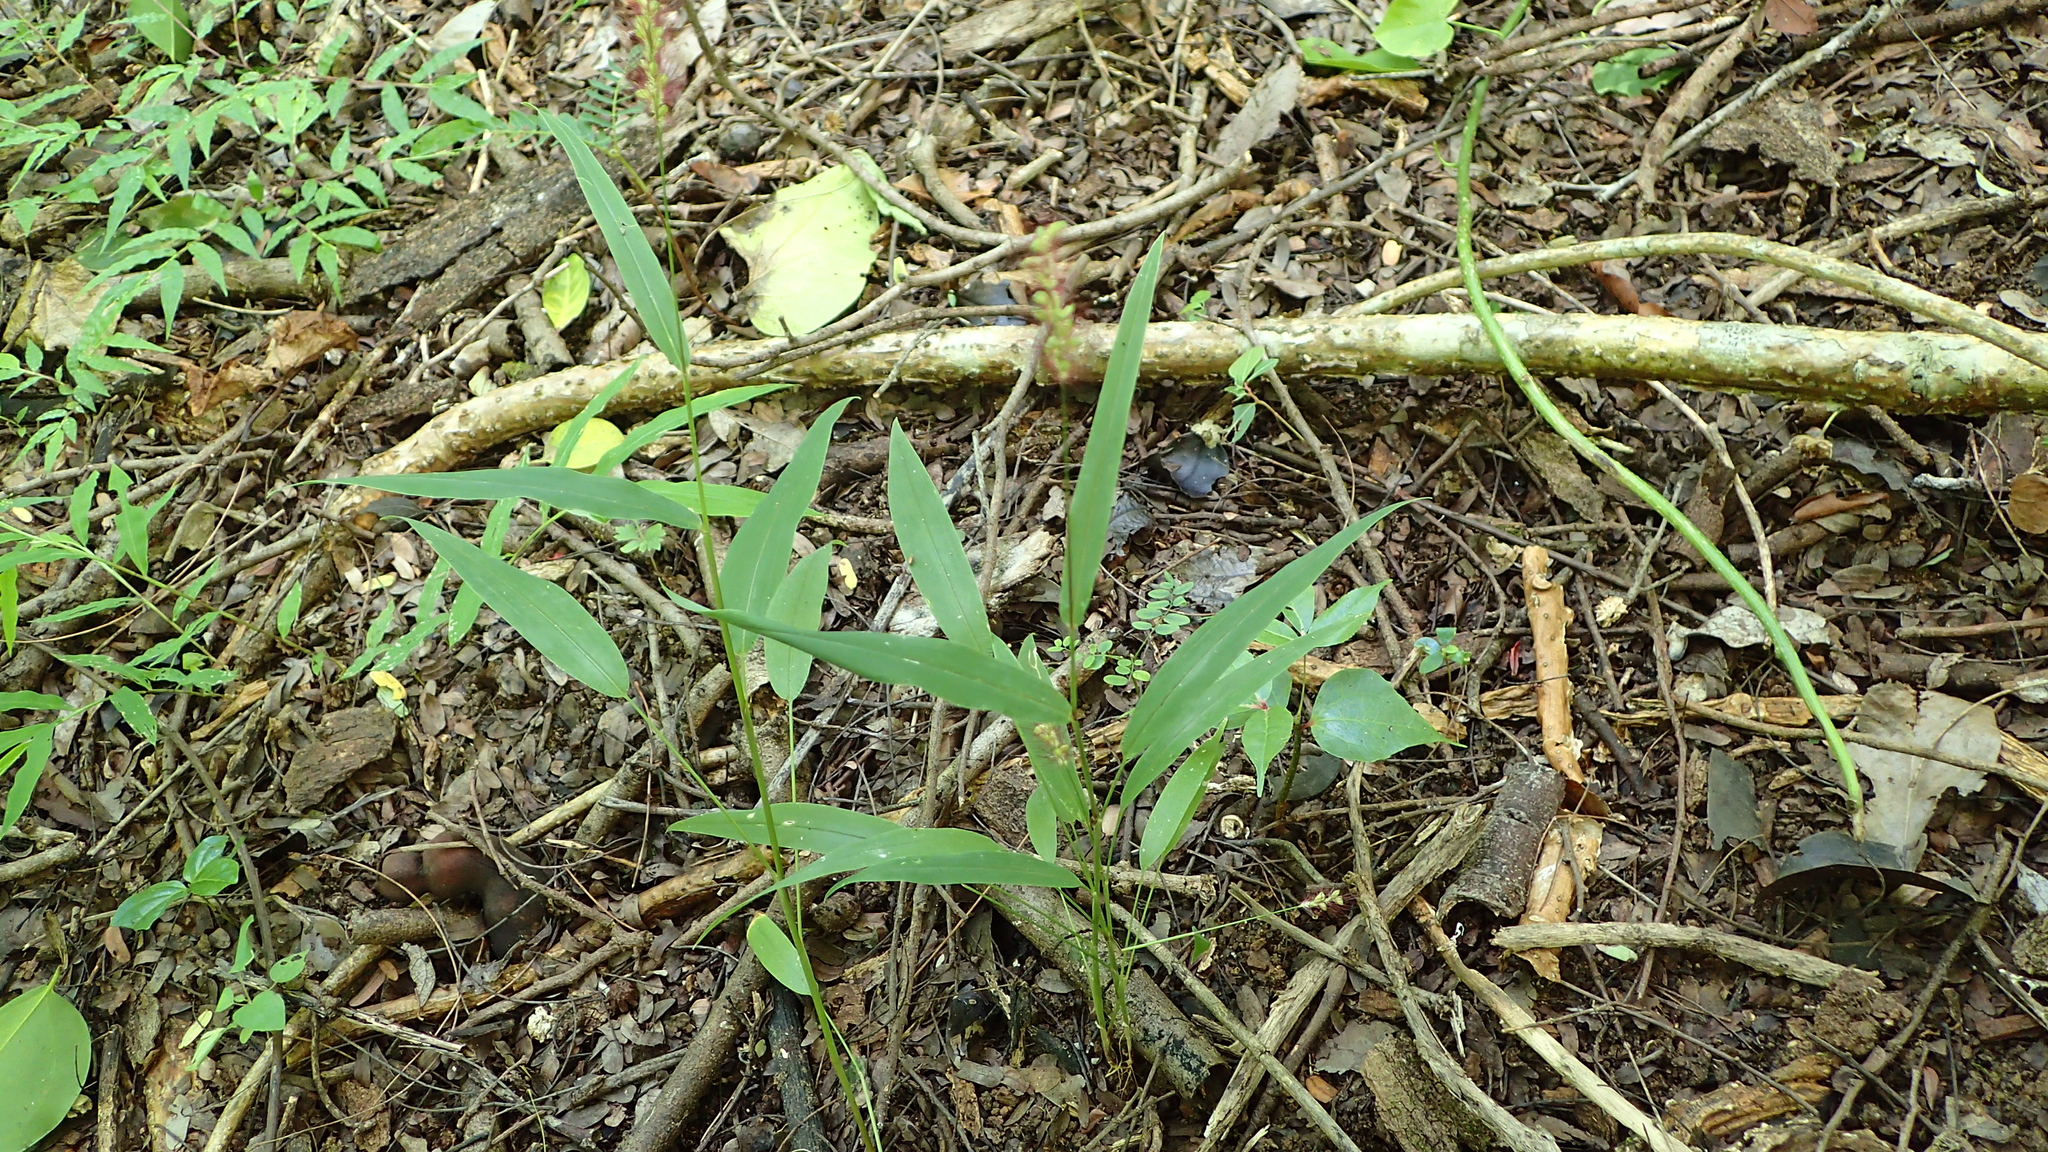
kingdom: Plantae
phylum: Tracheophyta
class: Liliopsida
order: Poales
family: Poaceae
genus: Setaria
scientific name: Setaria vatkeana
